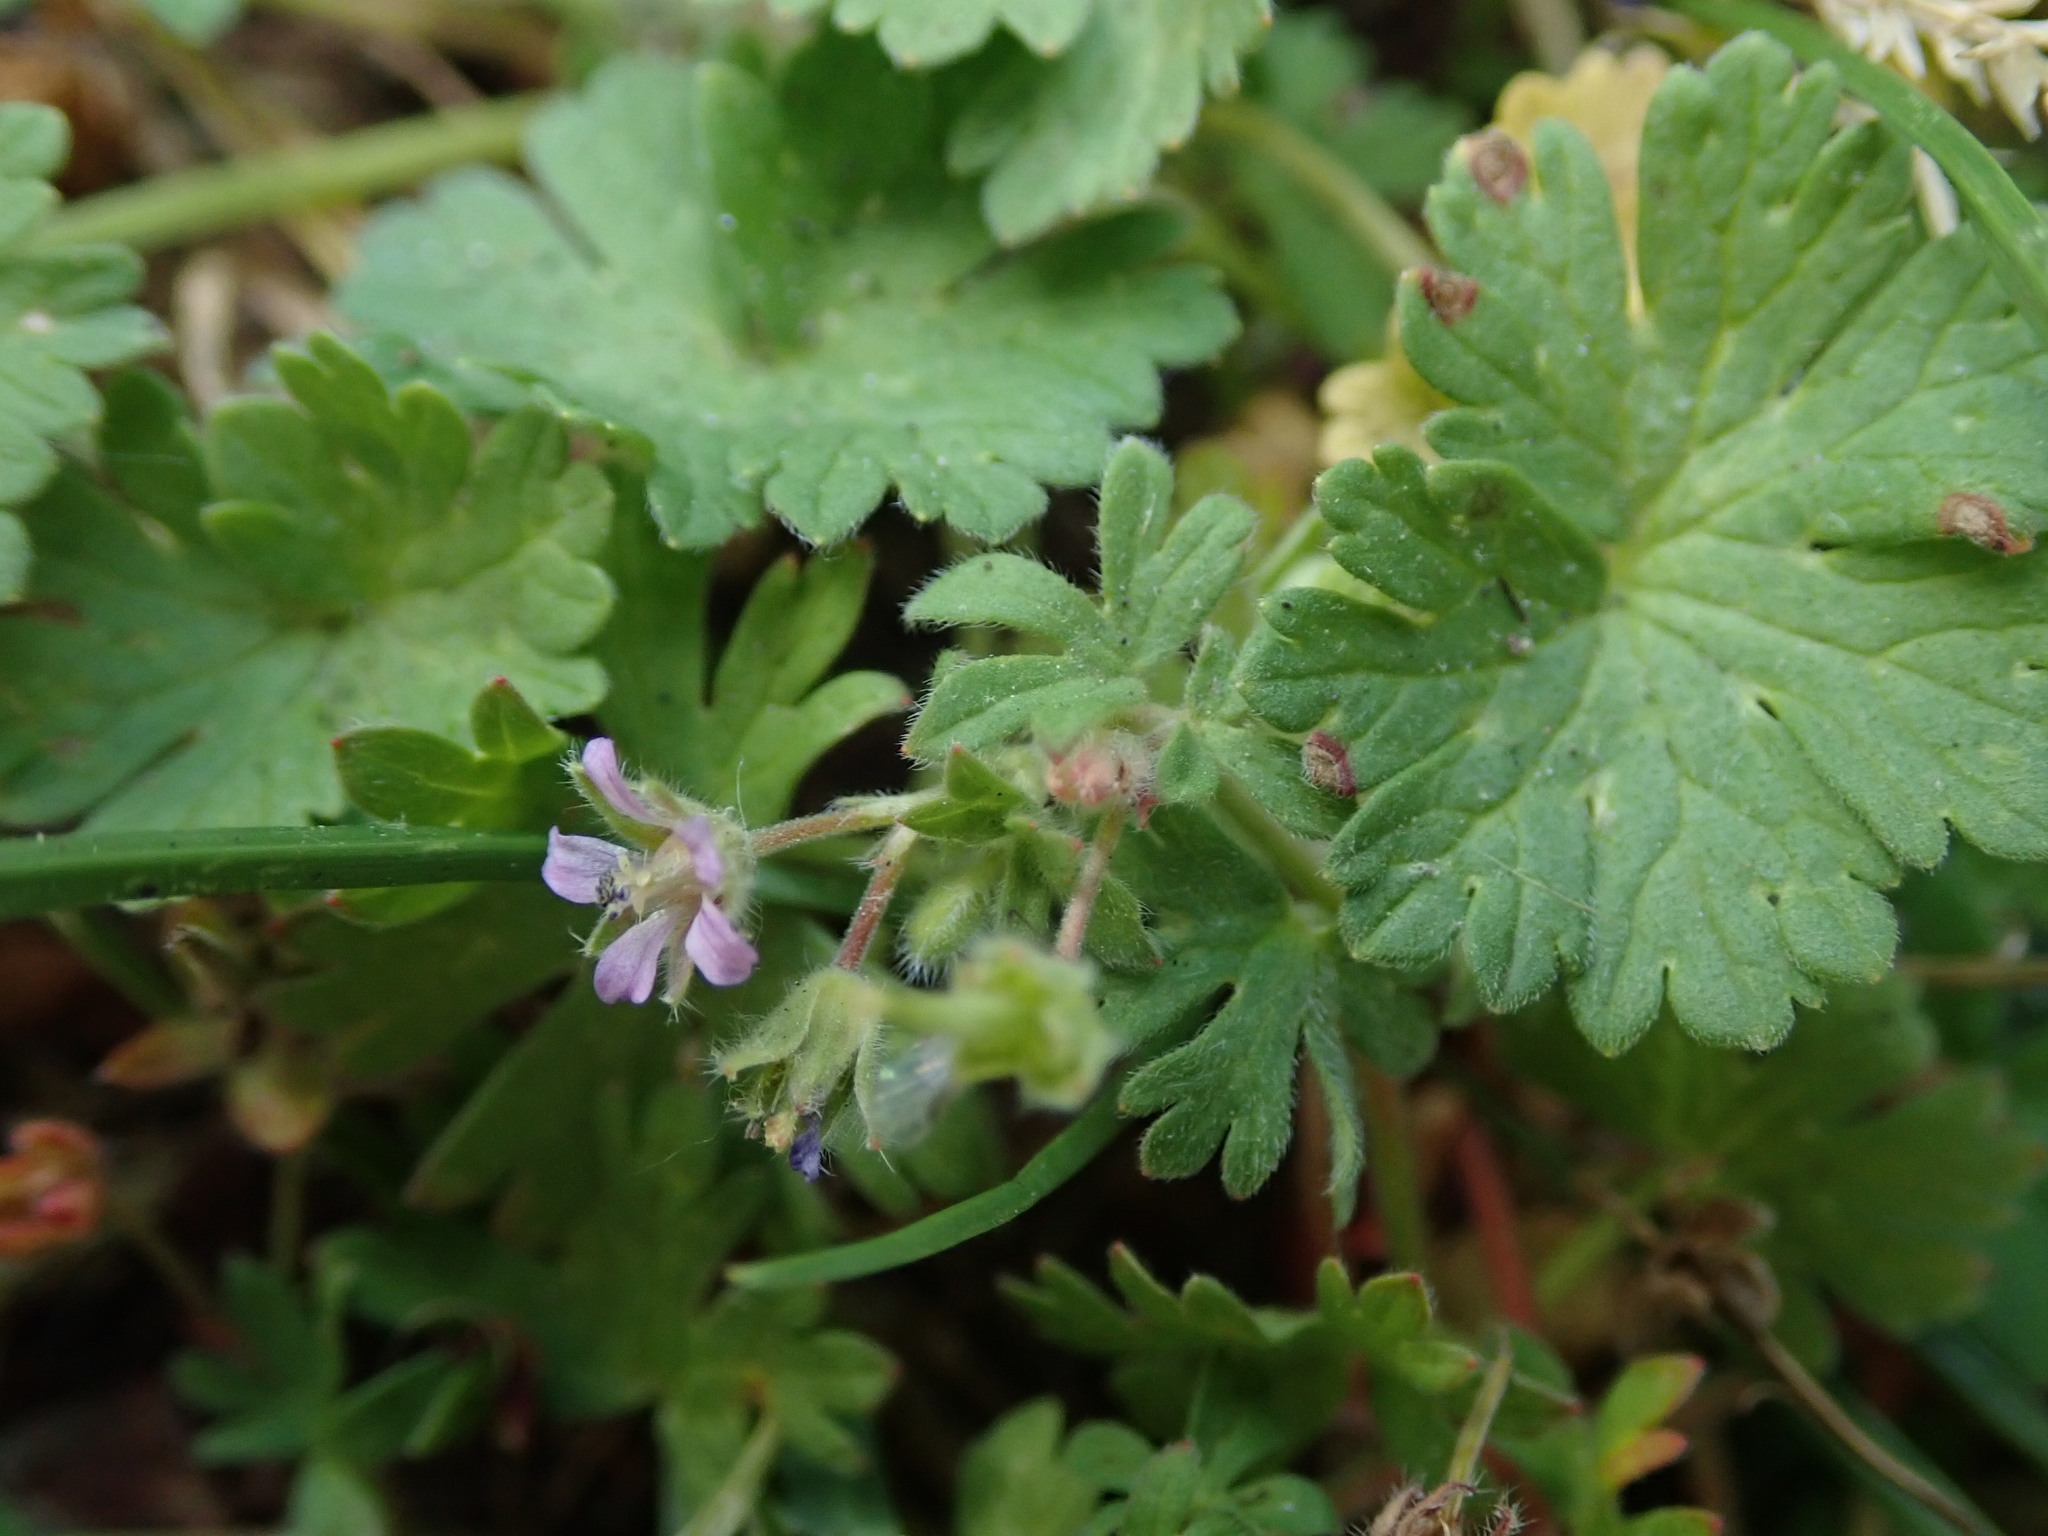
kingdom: Plantae
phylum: Tracheophyta
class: Magnoliopsida
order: Geraniales
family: Geraniaceae
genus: Geranium
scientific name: Geranium pusillum
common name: Small geranium
